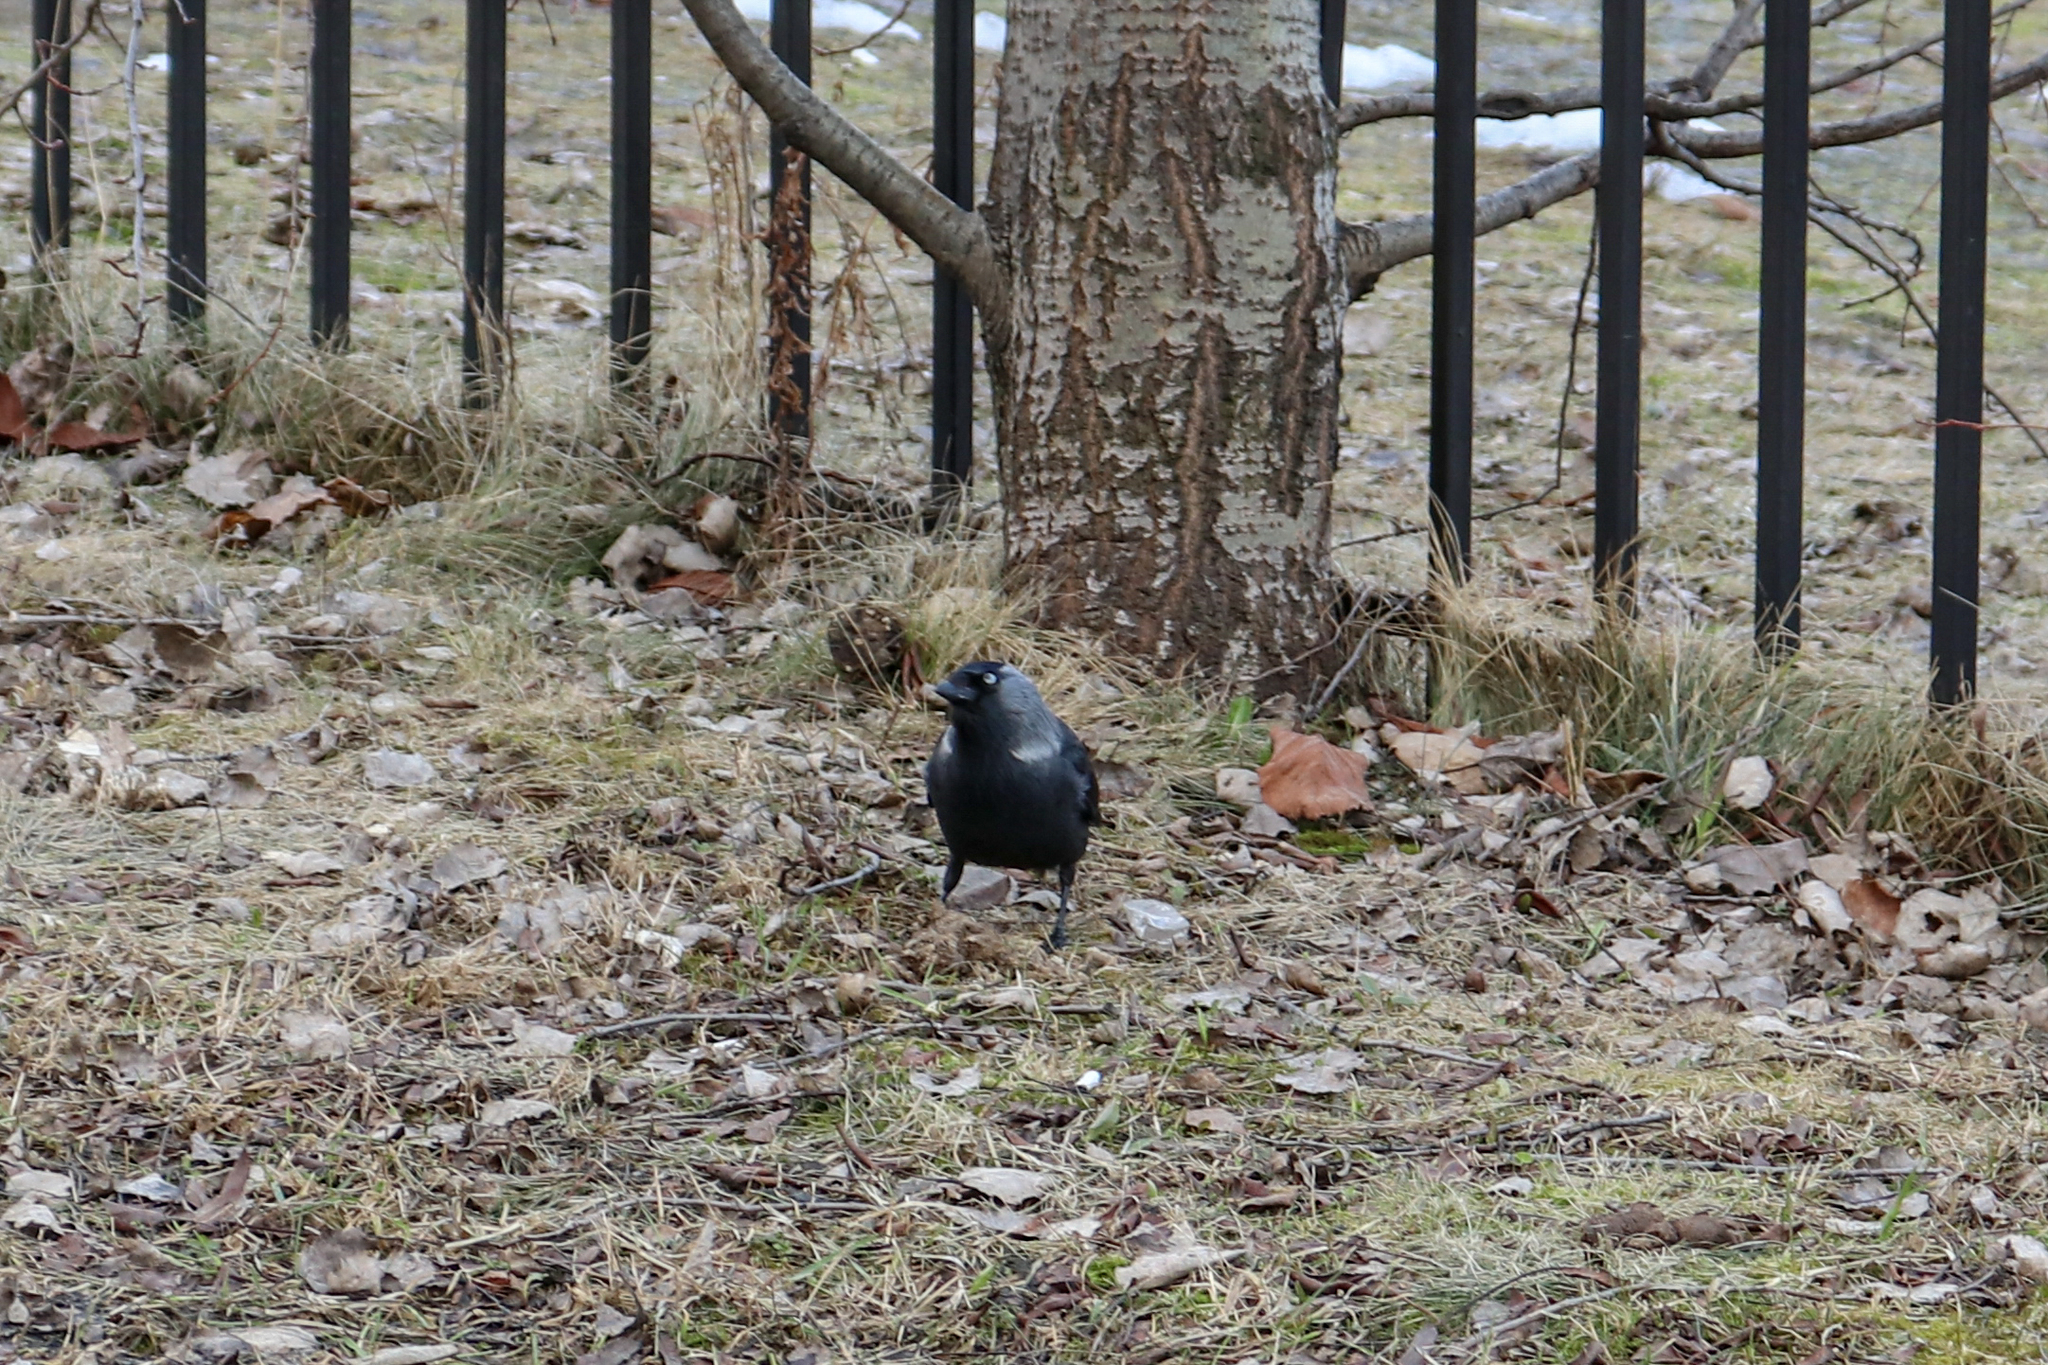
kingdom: Animalia
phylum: Chordata
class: Aves
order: Passeriformes
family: Corvidae
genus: Coloeus
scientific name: Coloeus monedula
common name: Western jackdaw
